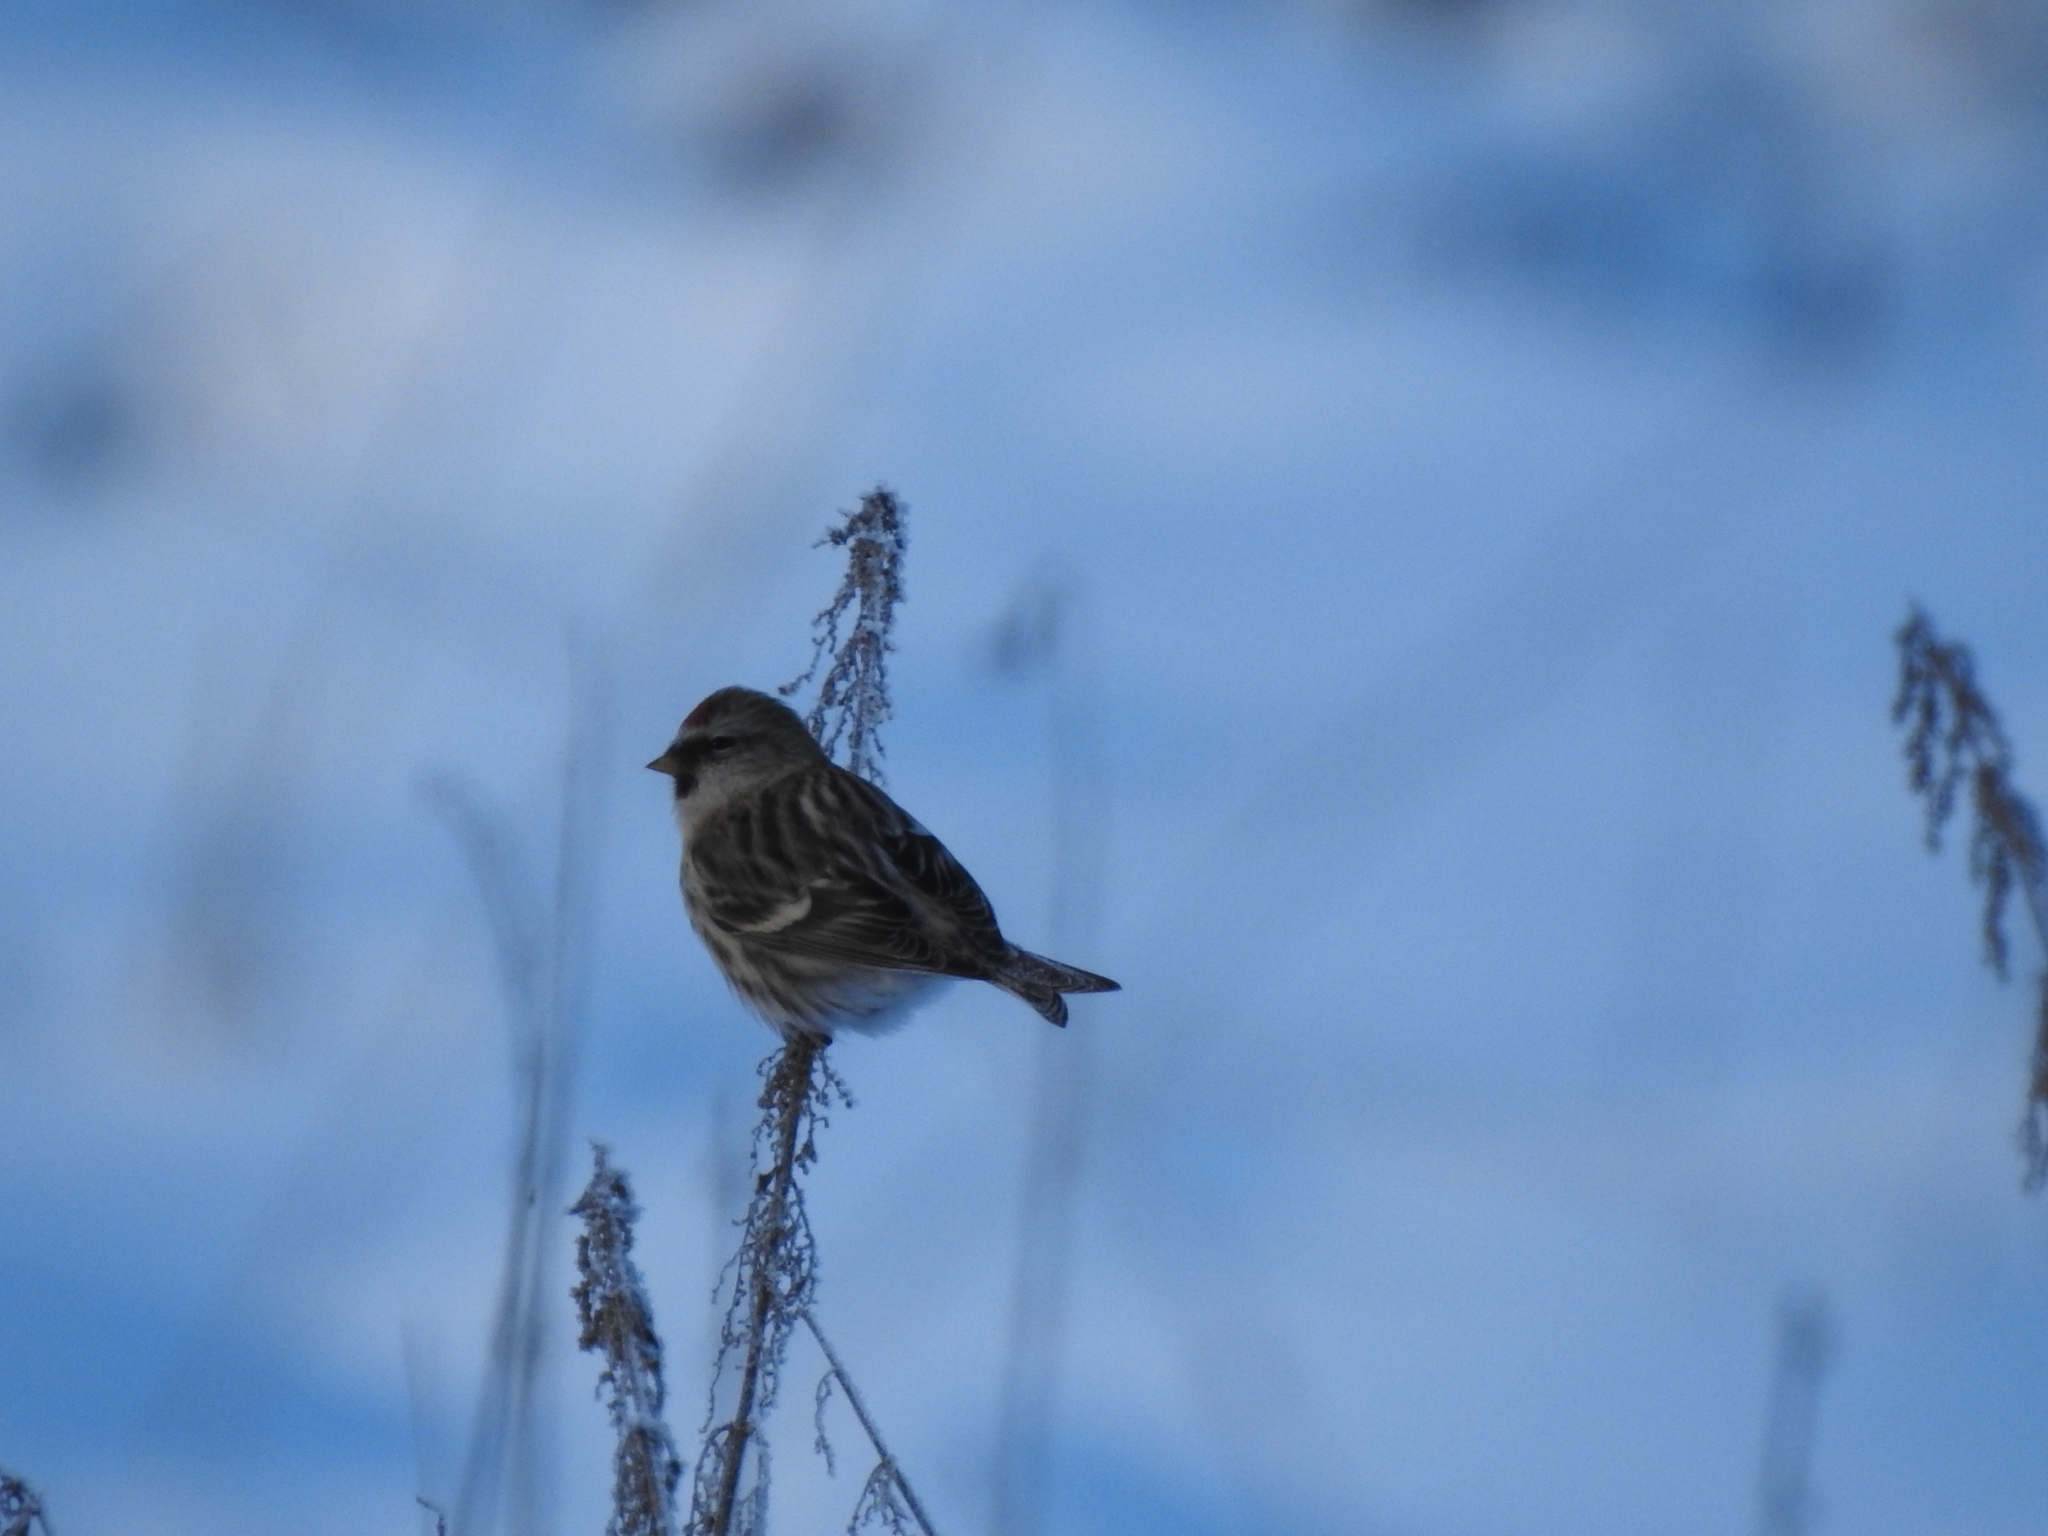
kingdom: Animalia
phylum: Chordata
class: Aves
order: Passeriformes
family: Fringillidae
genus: Acanthis
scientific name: Acanthis flammea
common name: Common redpoll
